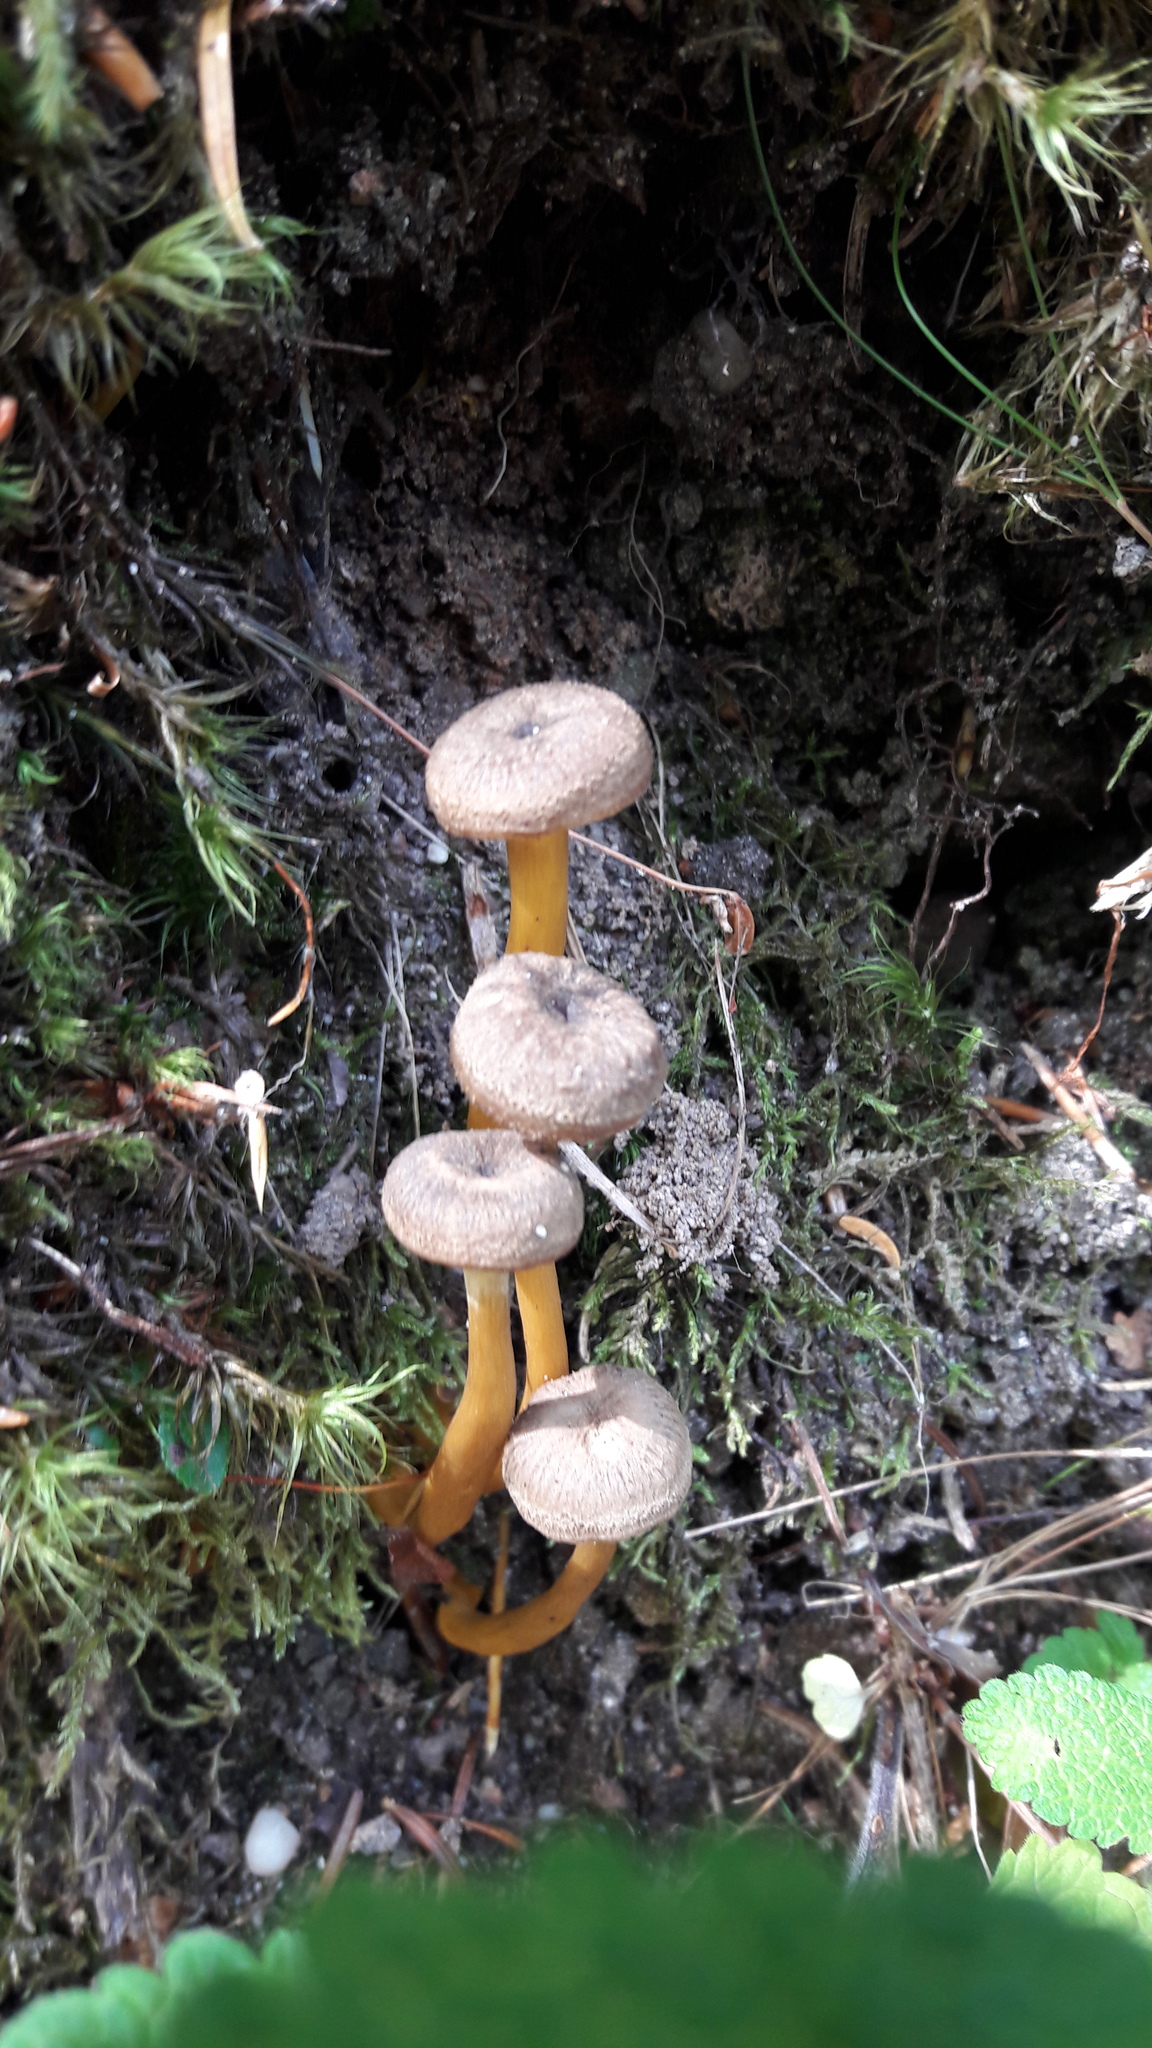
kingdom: Fungi
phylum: Basidiomycota
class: Agaricomycetes
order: Cantharellales
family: Hydnaceae
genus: Craterellus
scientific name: Craterellus tubaeformis
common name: Yellowfoot
